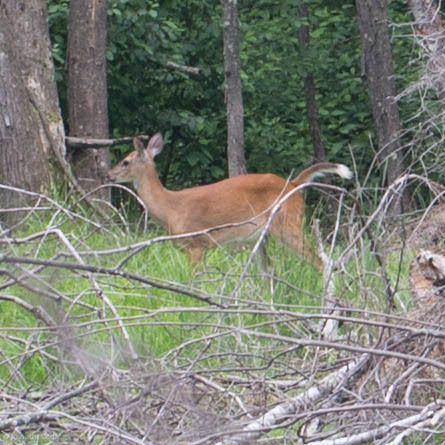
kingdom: Animalia
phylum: Chordata
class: Mammalia
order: Artiodactyla
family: Cervidae
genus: Odocoileus
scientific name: Odocoileus virginianus
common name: White-tailed deer
